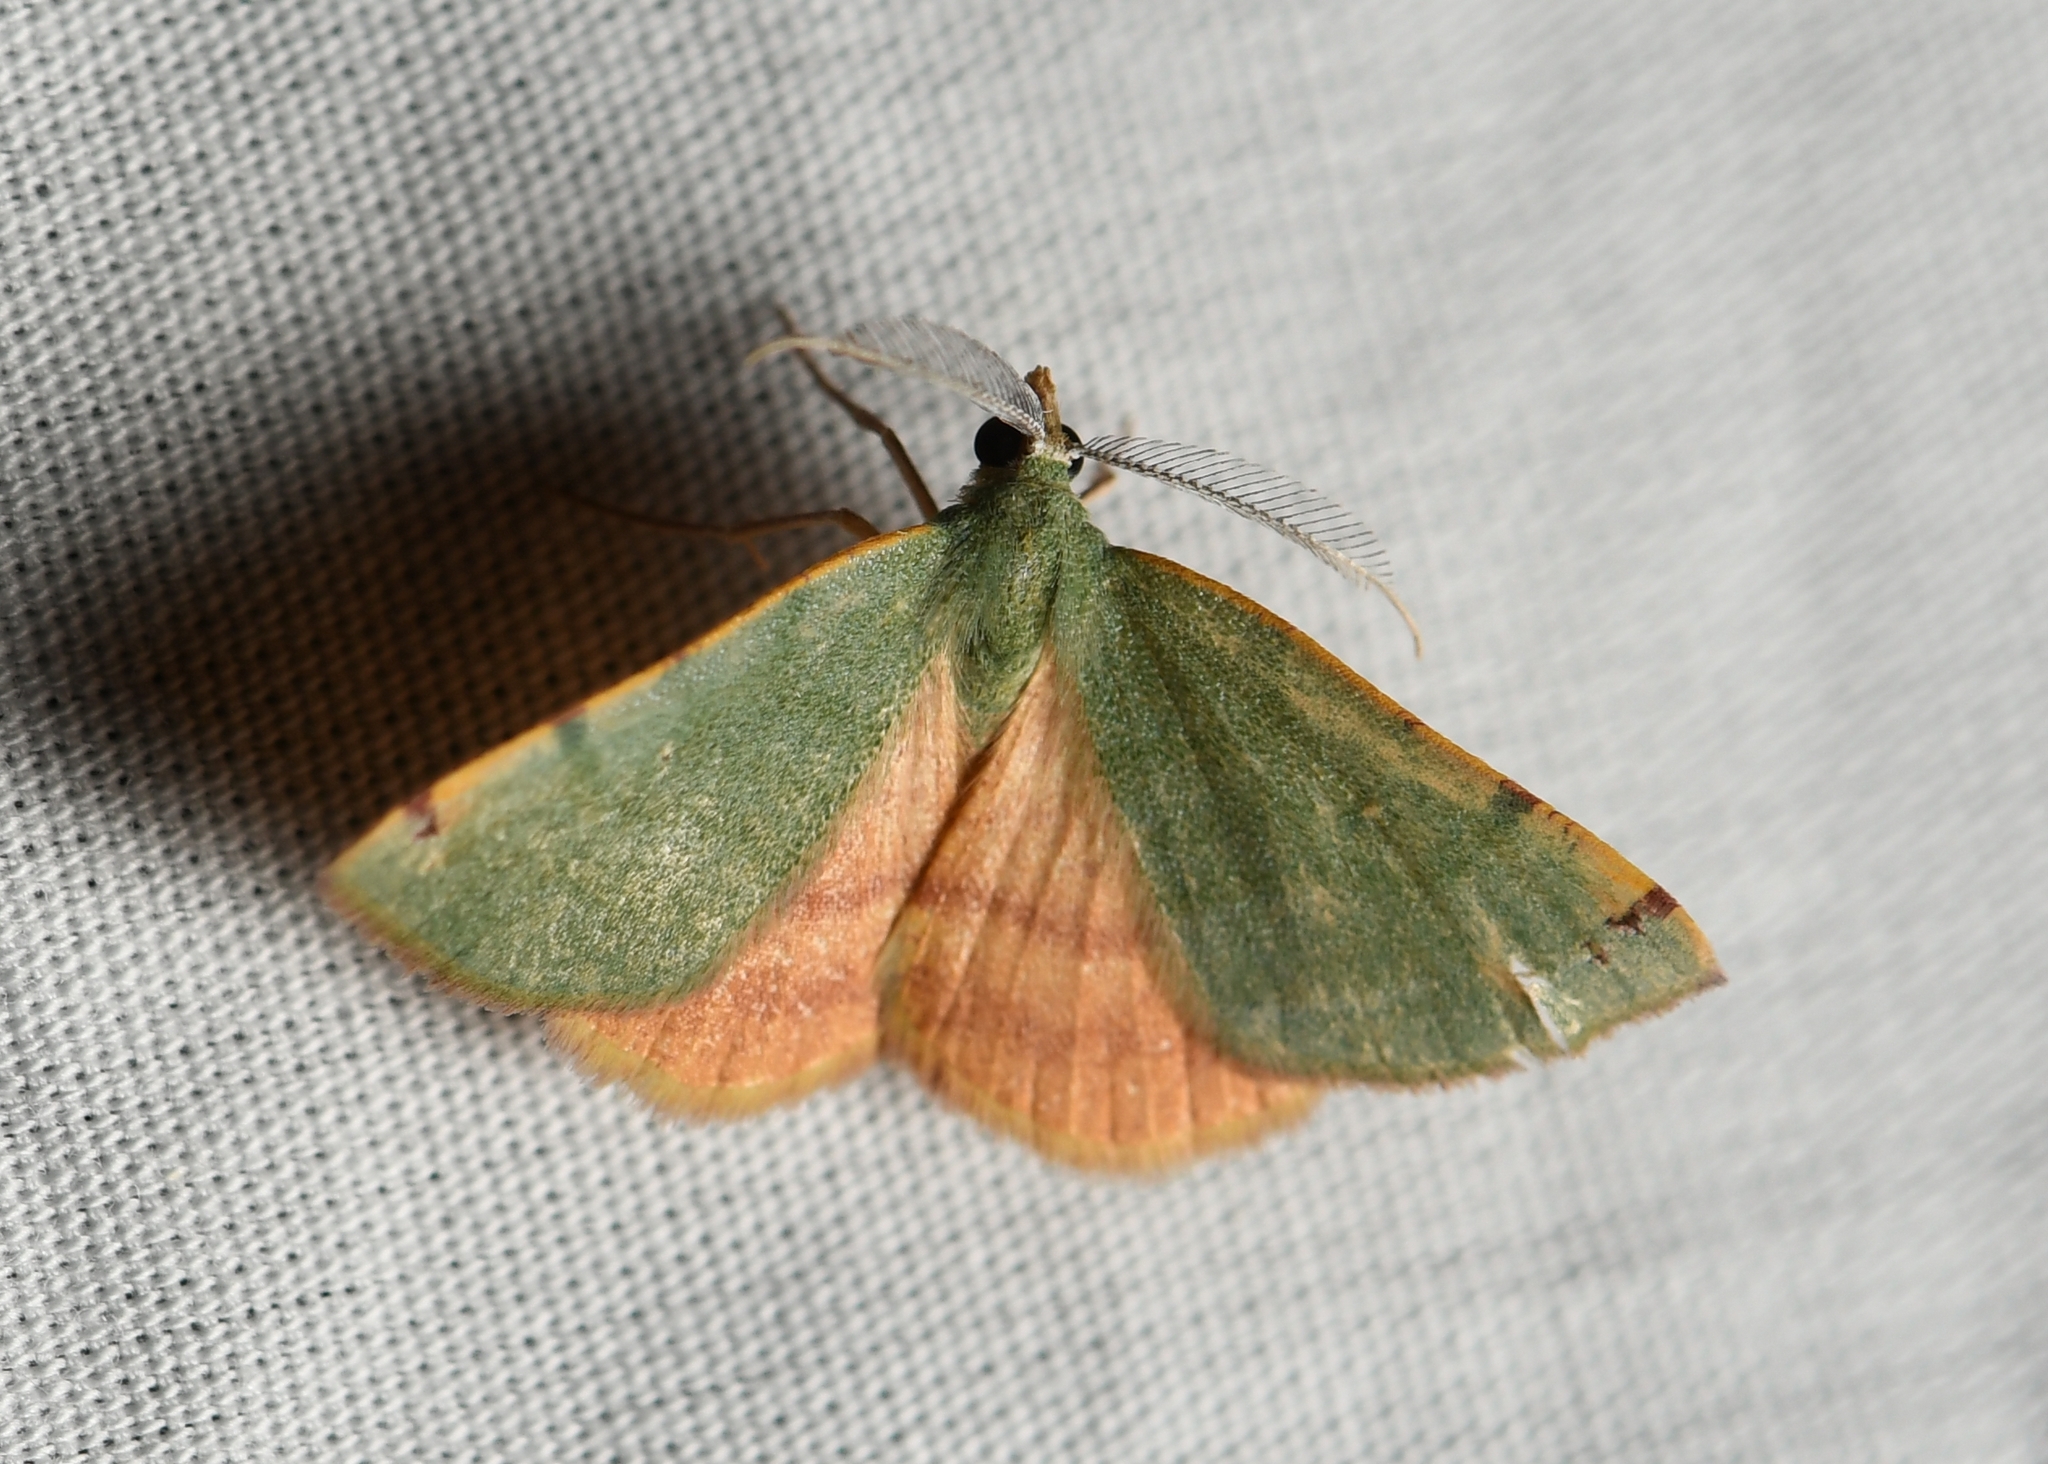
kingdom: Animalia
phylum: Arthropoda
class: Insecta
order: Lepidoptera
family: Geometridae
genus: Chloraspilates
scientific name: Chloraspilates bicoloraria
